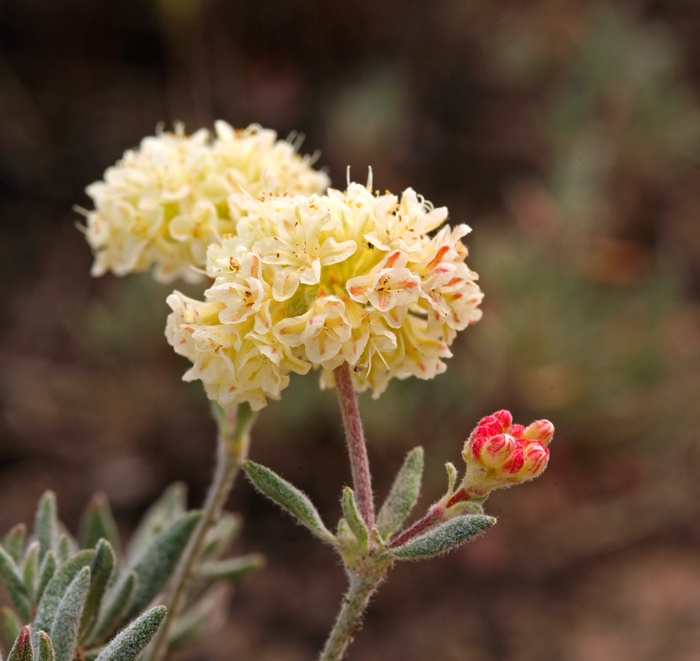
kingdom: Plantae
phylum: Tracheophyta
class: Magnoliopsida
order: Caryophyllales
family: Polygonaceae
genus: Eriogonum
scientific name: Eriogonum sphaerocephalum
